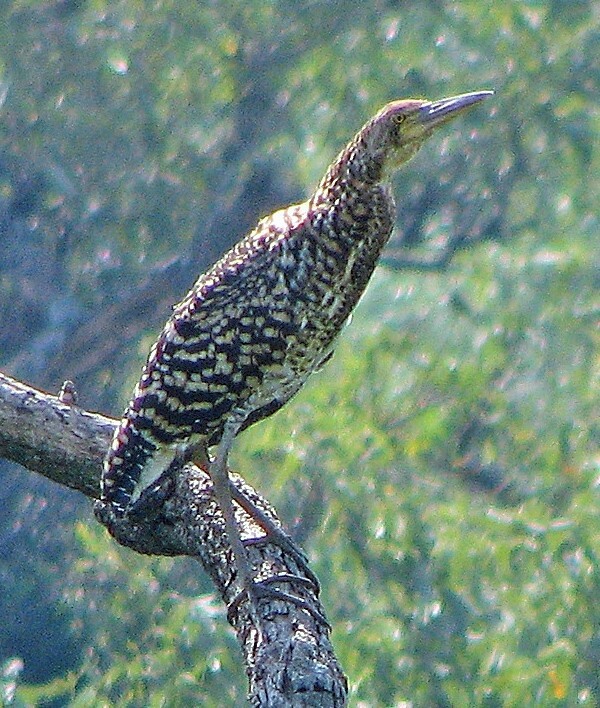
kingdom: Animalia
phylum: Chordata
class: Aves
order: Pelecaniformes
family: Ardeidae
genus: Tigrisoma
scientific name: Tigrisoma lineatum
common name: Rufescent tiger-heron
